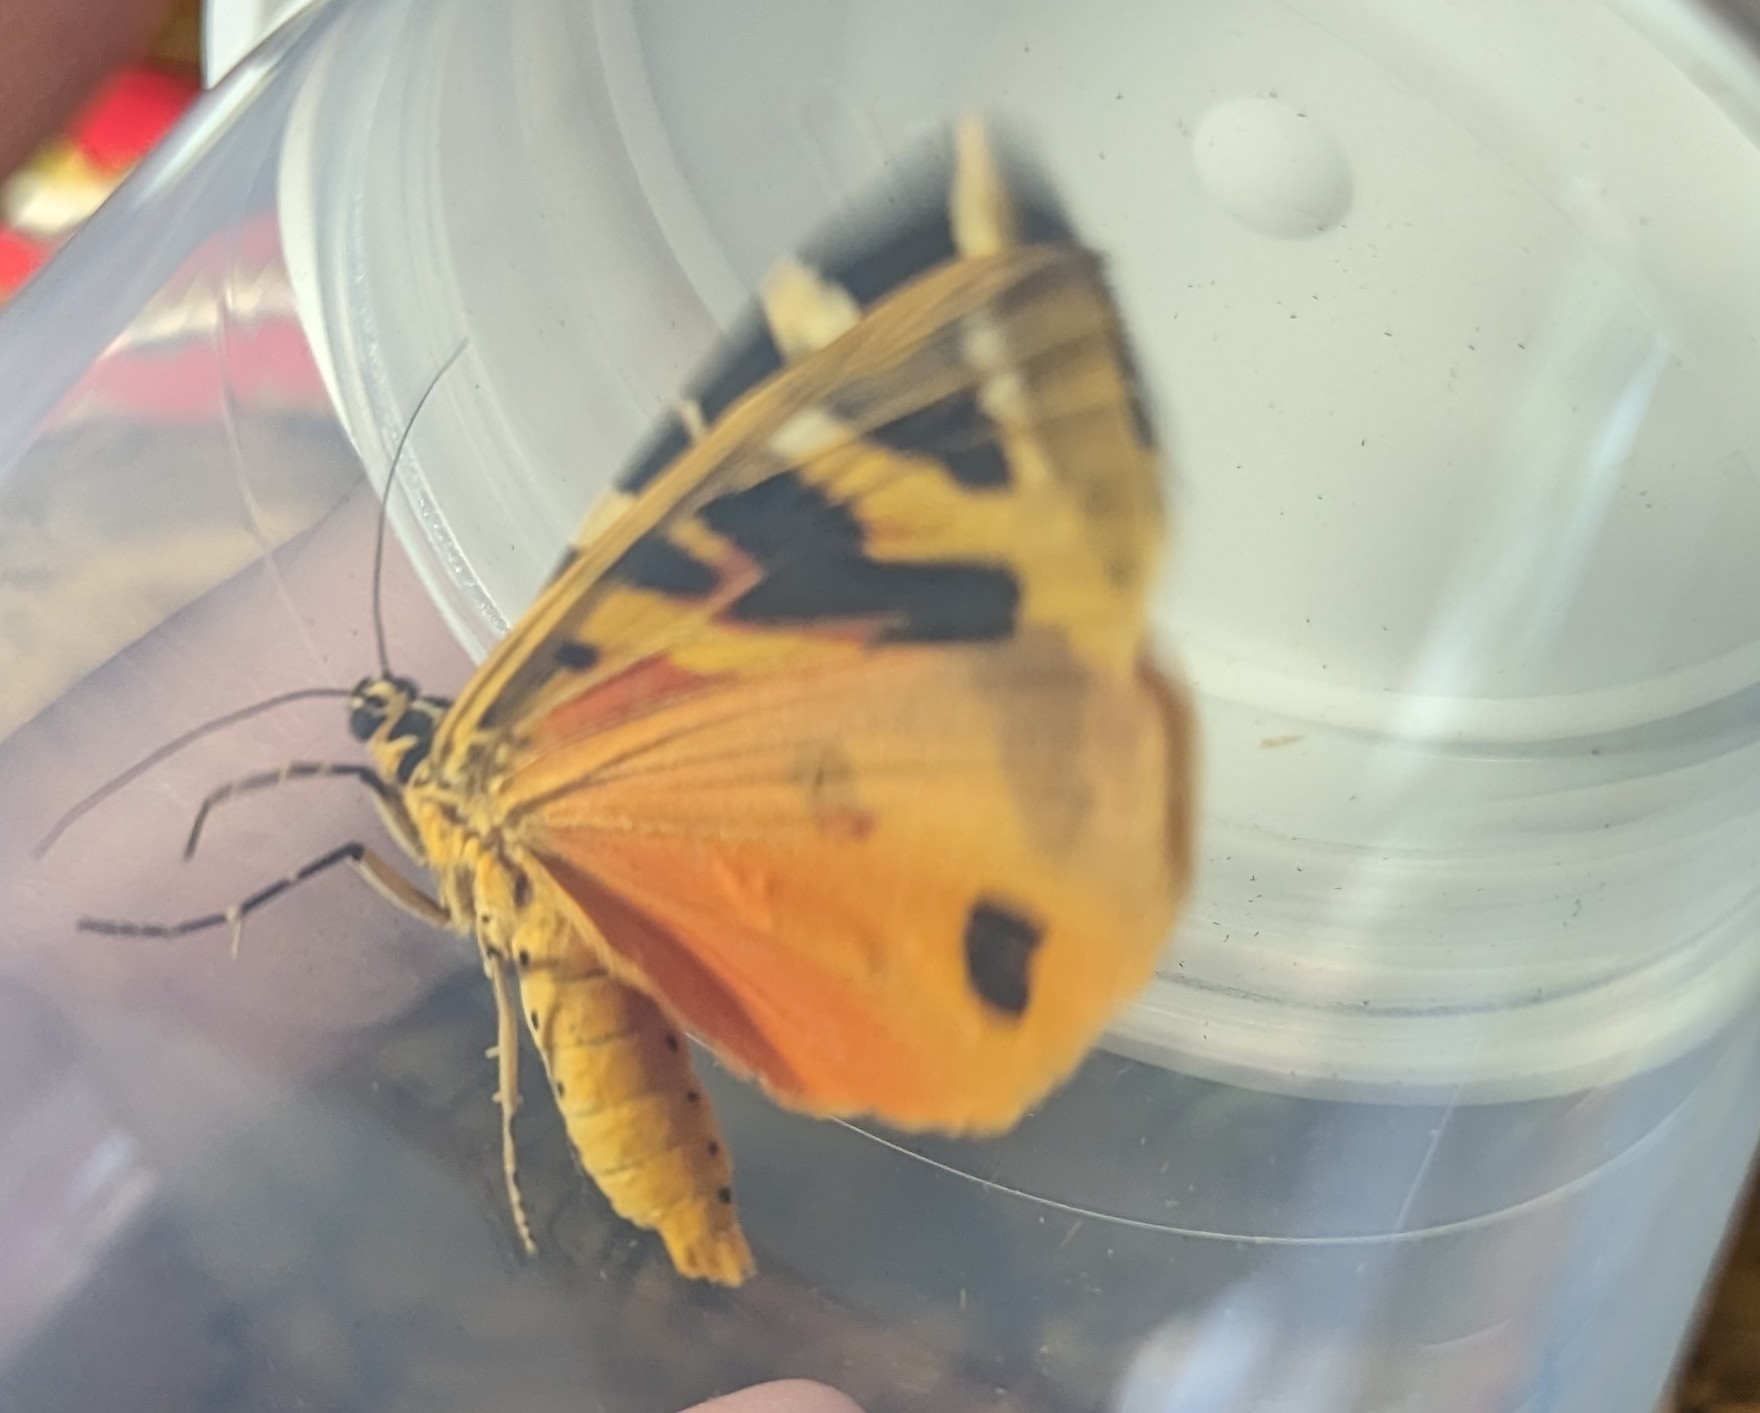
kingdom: Animalia
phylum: Arthropoda
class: Insecta
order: Lepidoptera
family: Erebidae
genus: Euplagia
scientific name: Euplagia quadripunctaria
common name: Jersey tiger
